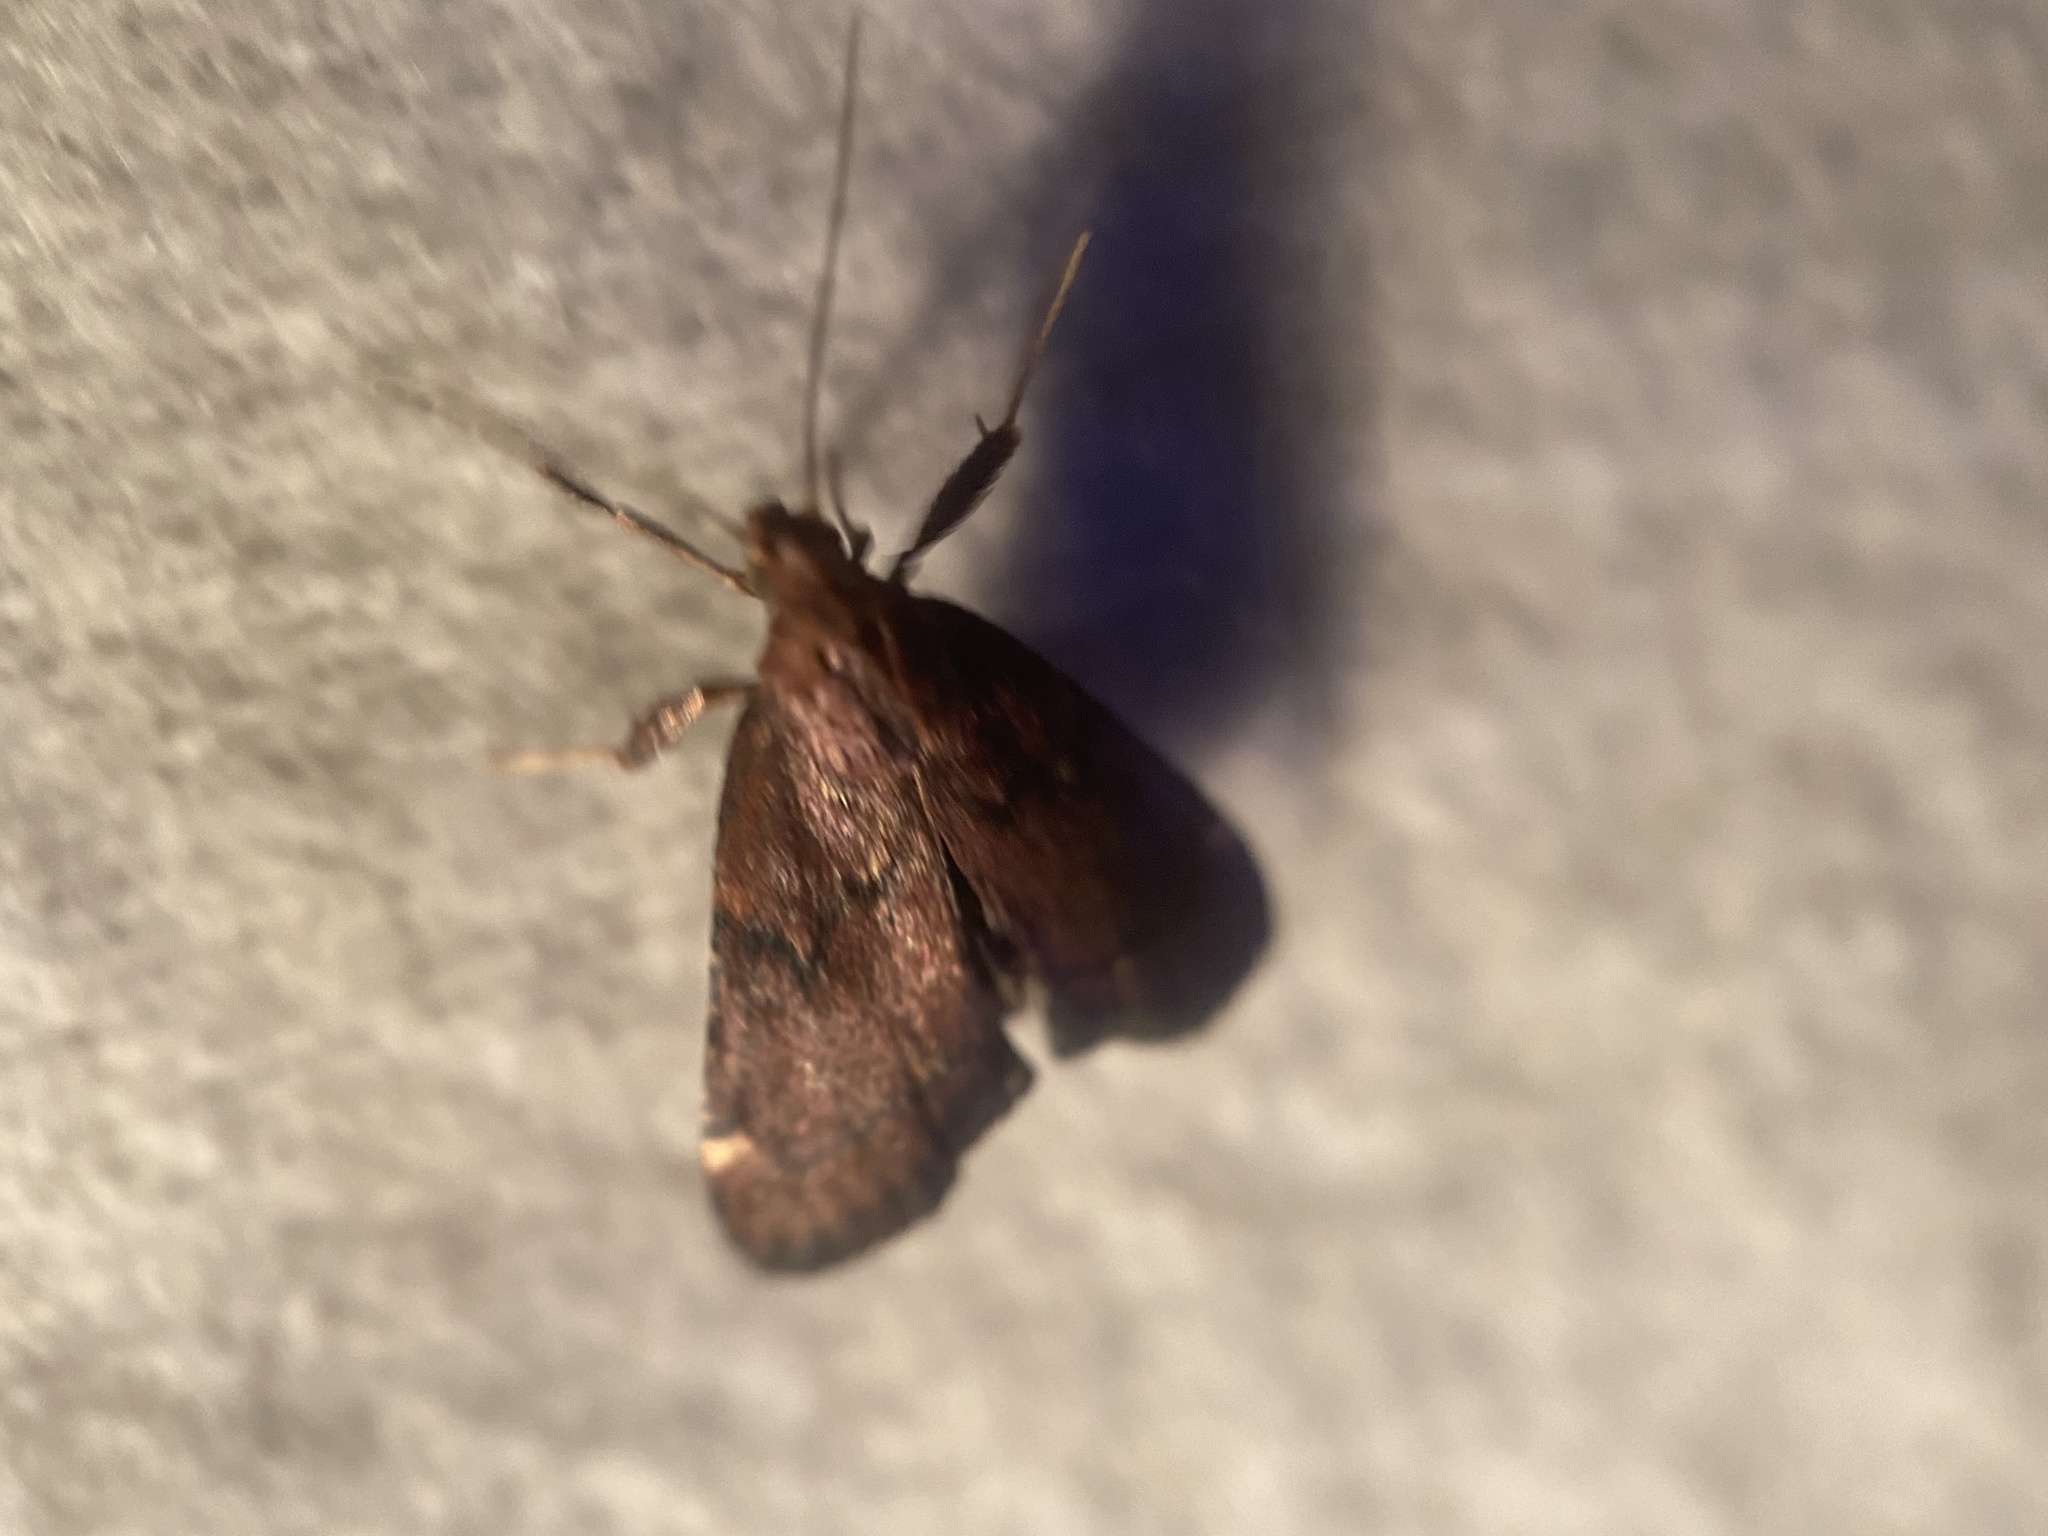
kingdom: Animalia
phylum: Arthropoda
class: Insecta
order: Lepidoptera
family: Pyralidae
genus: Hypsopygia
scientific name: Hypsopygia intermedialis
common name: Red-shawled moth
